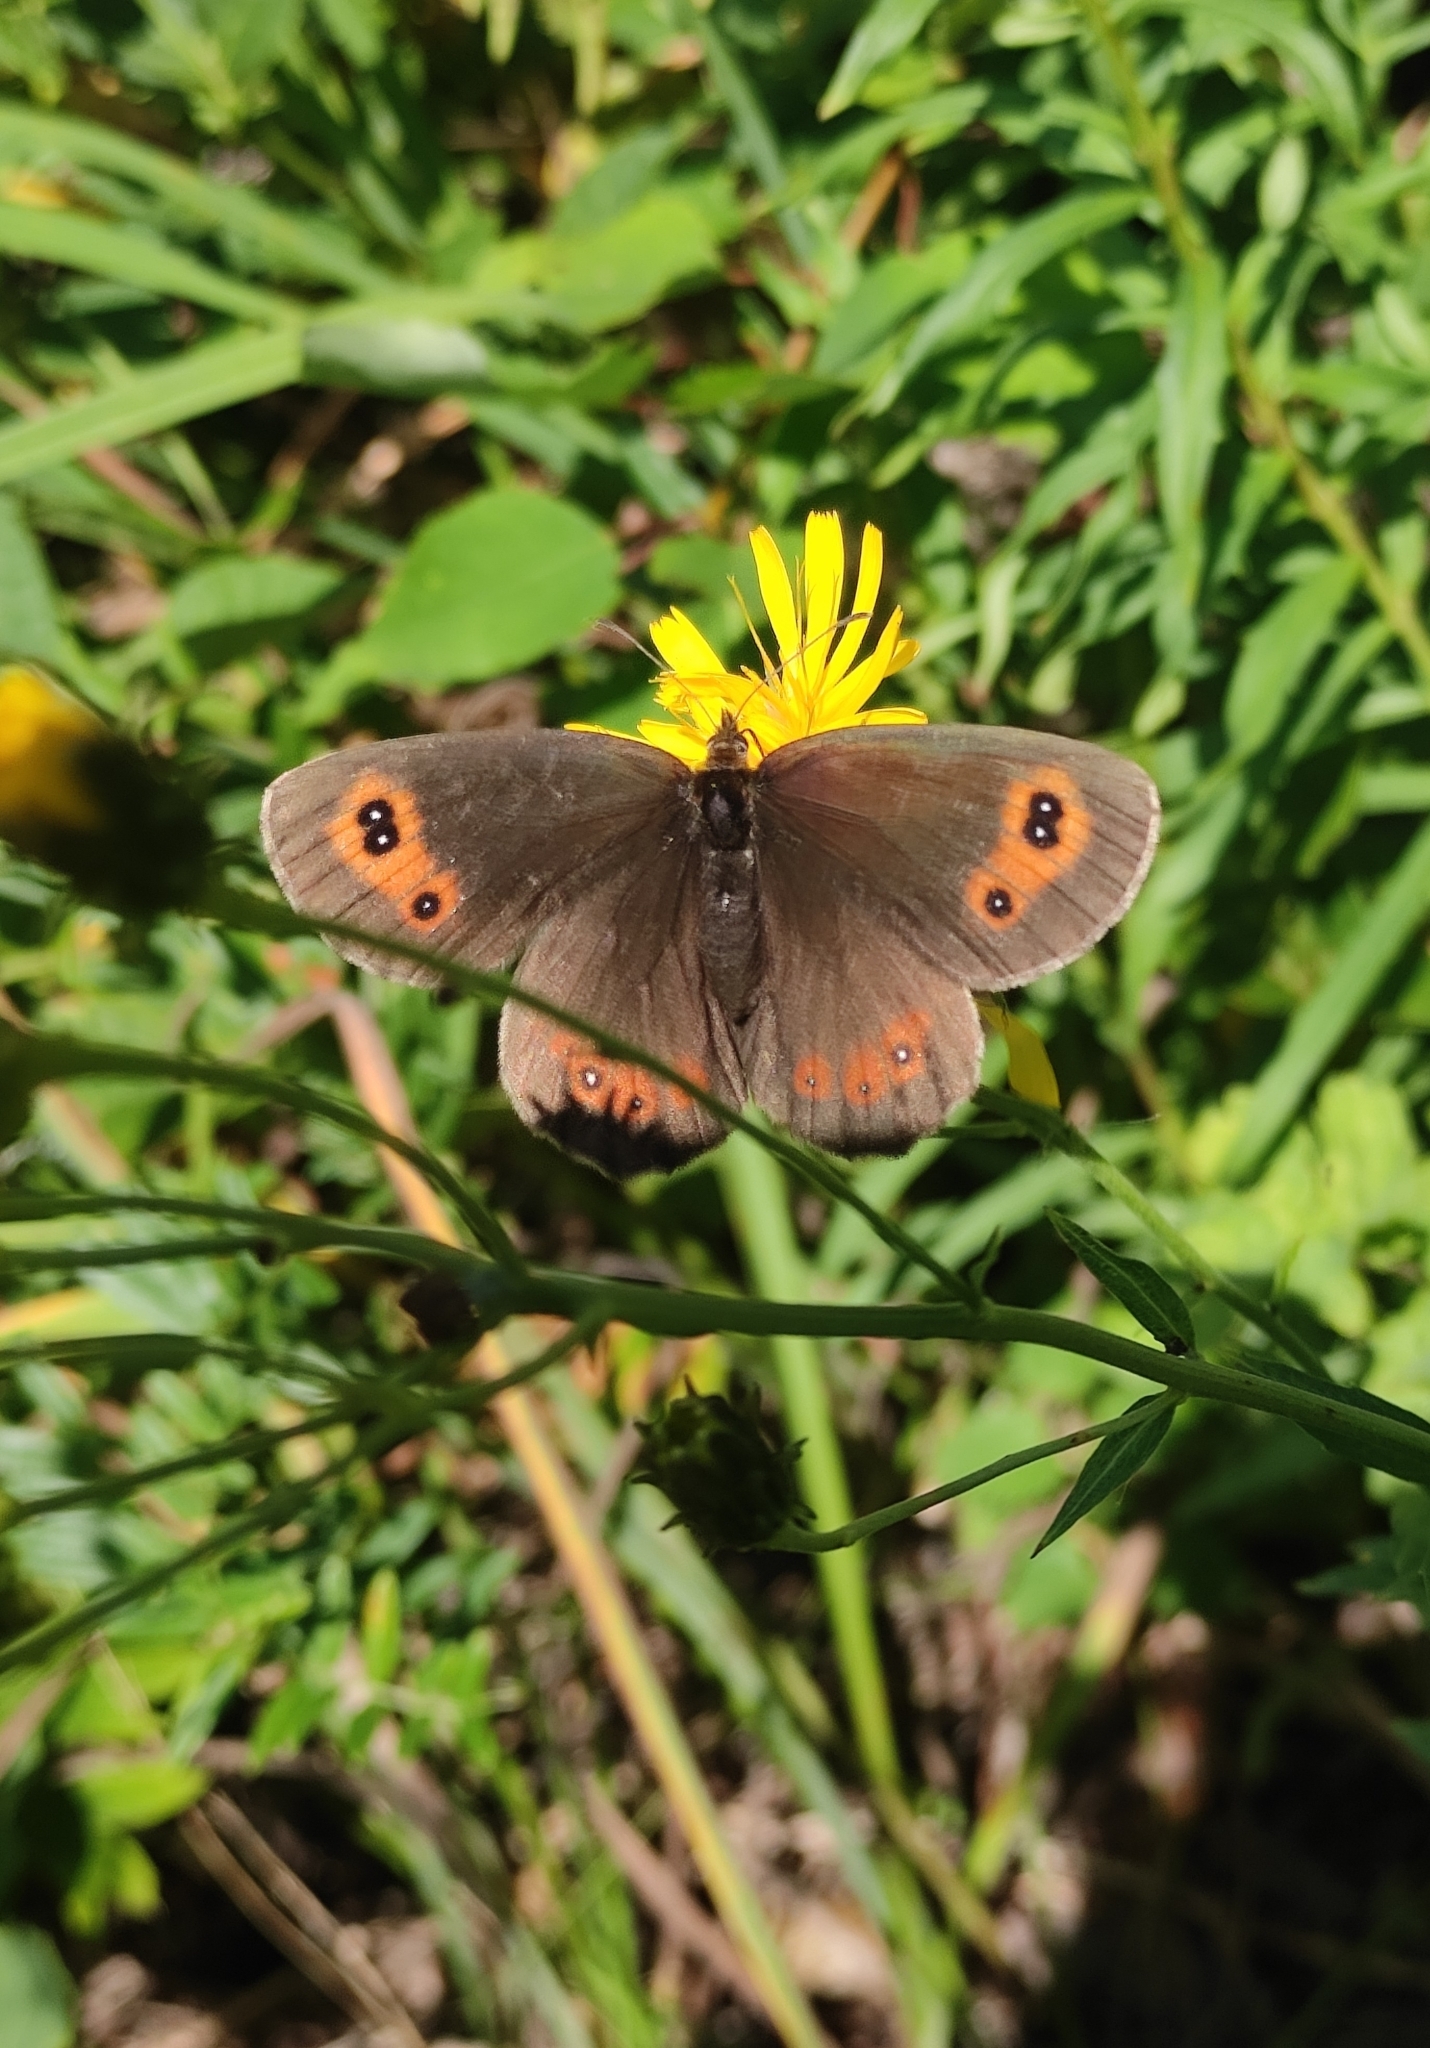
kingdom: Animalia
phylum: Arthropoda
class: Insecta
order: Lepidoptera
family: Nymphalidae
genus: Erebia
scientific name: Erebia aethiops
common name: Scotch argus
